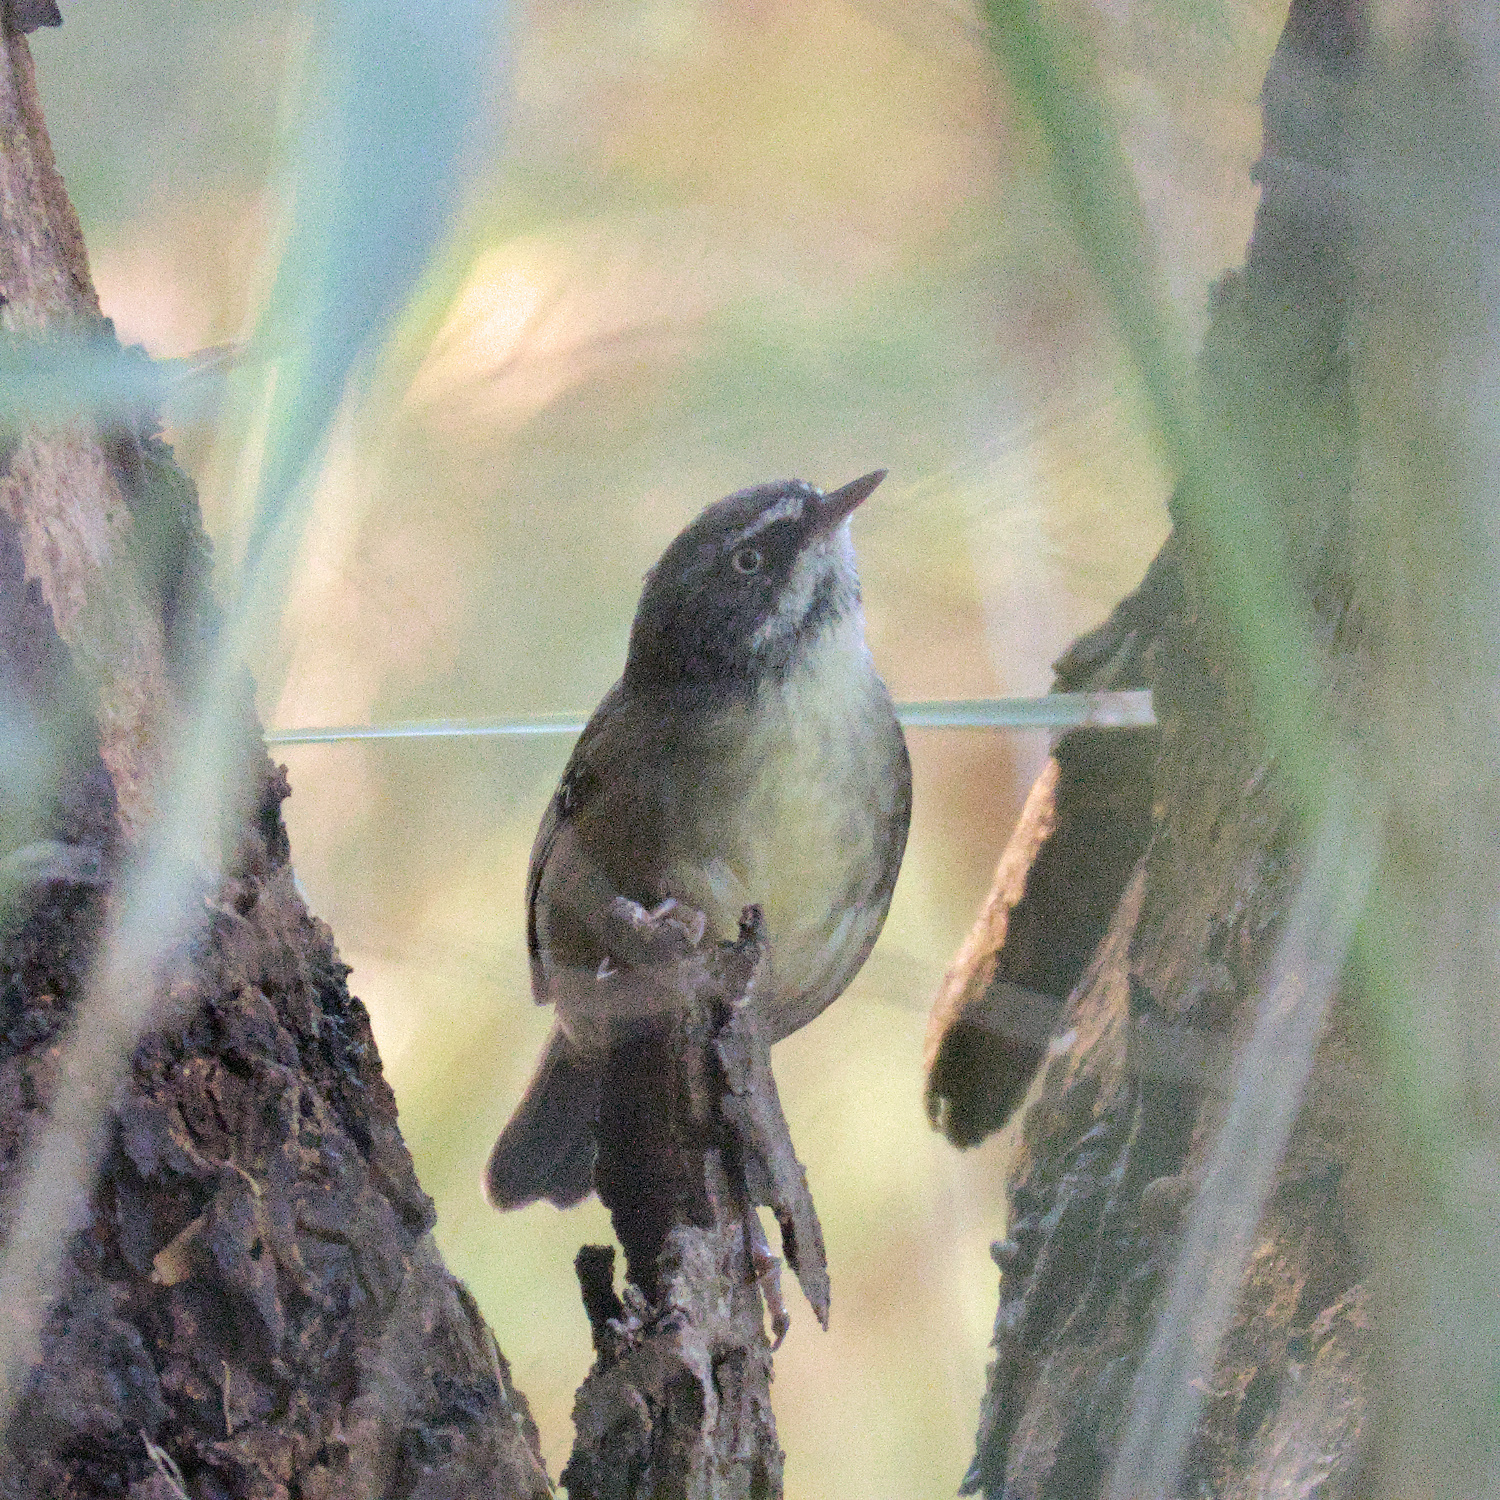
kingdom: Animalia
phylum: Chordata
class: Aves
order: Passeriformes
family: Acanthizidae
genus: Sericornis
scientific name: Sericornis frontalis
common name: White-browed scrubwren
